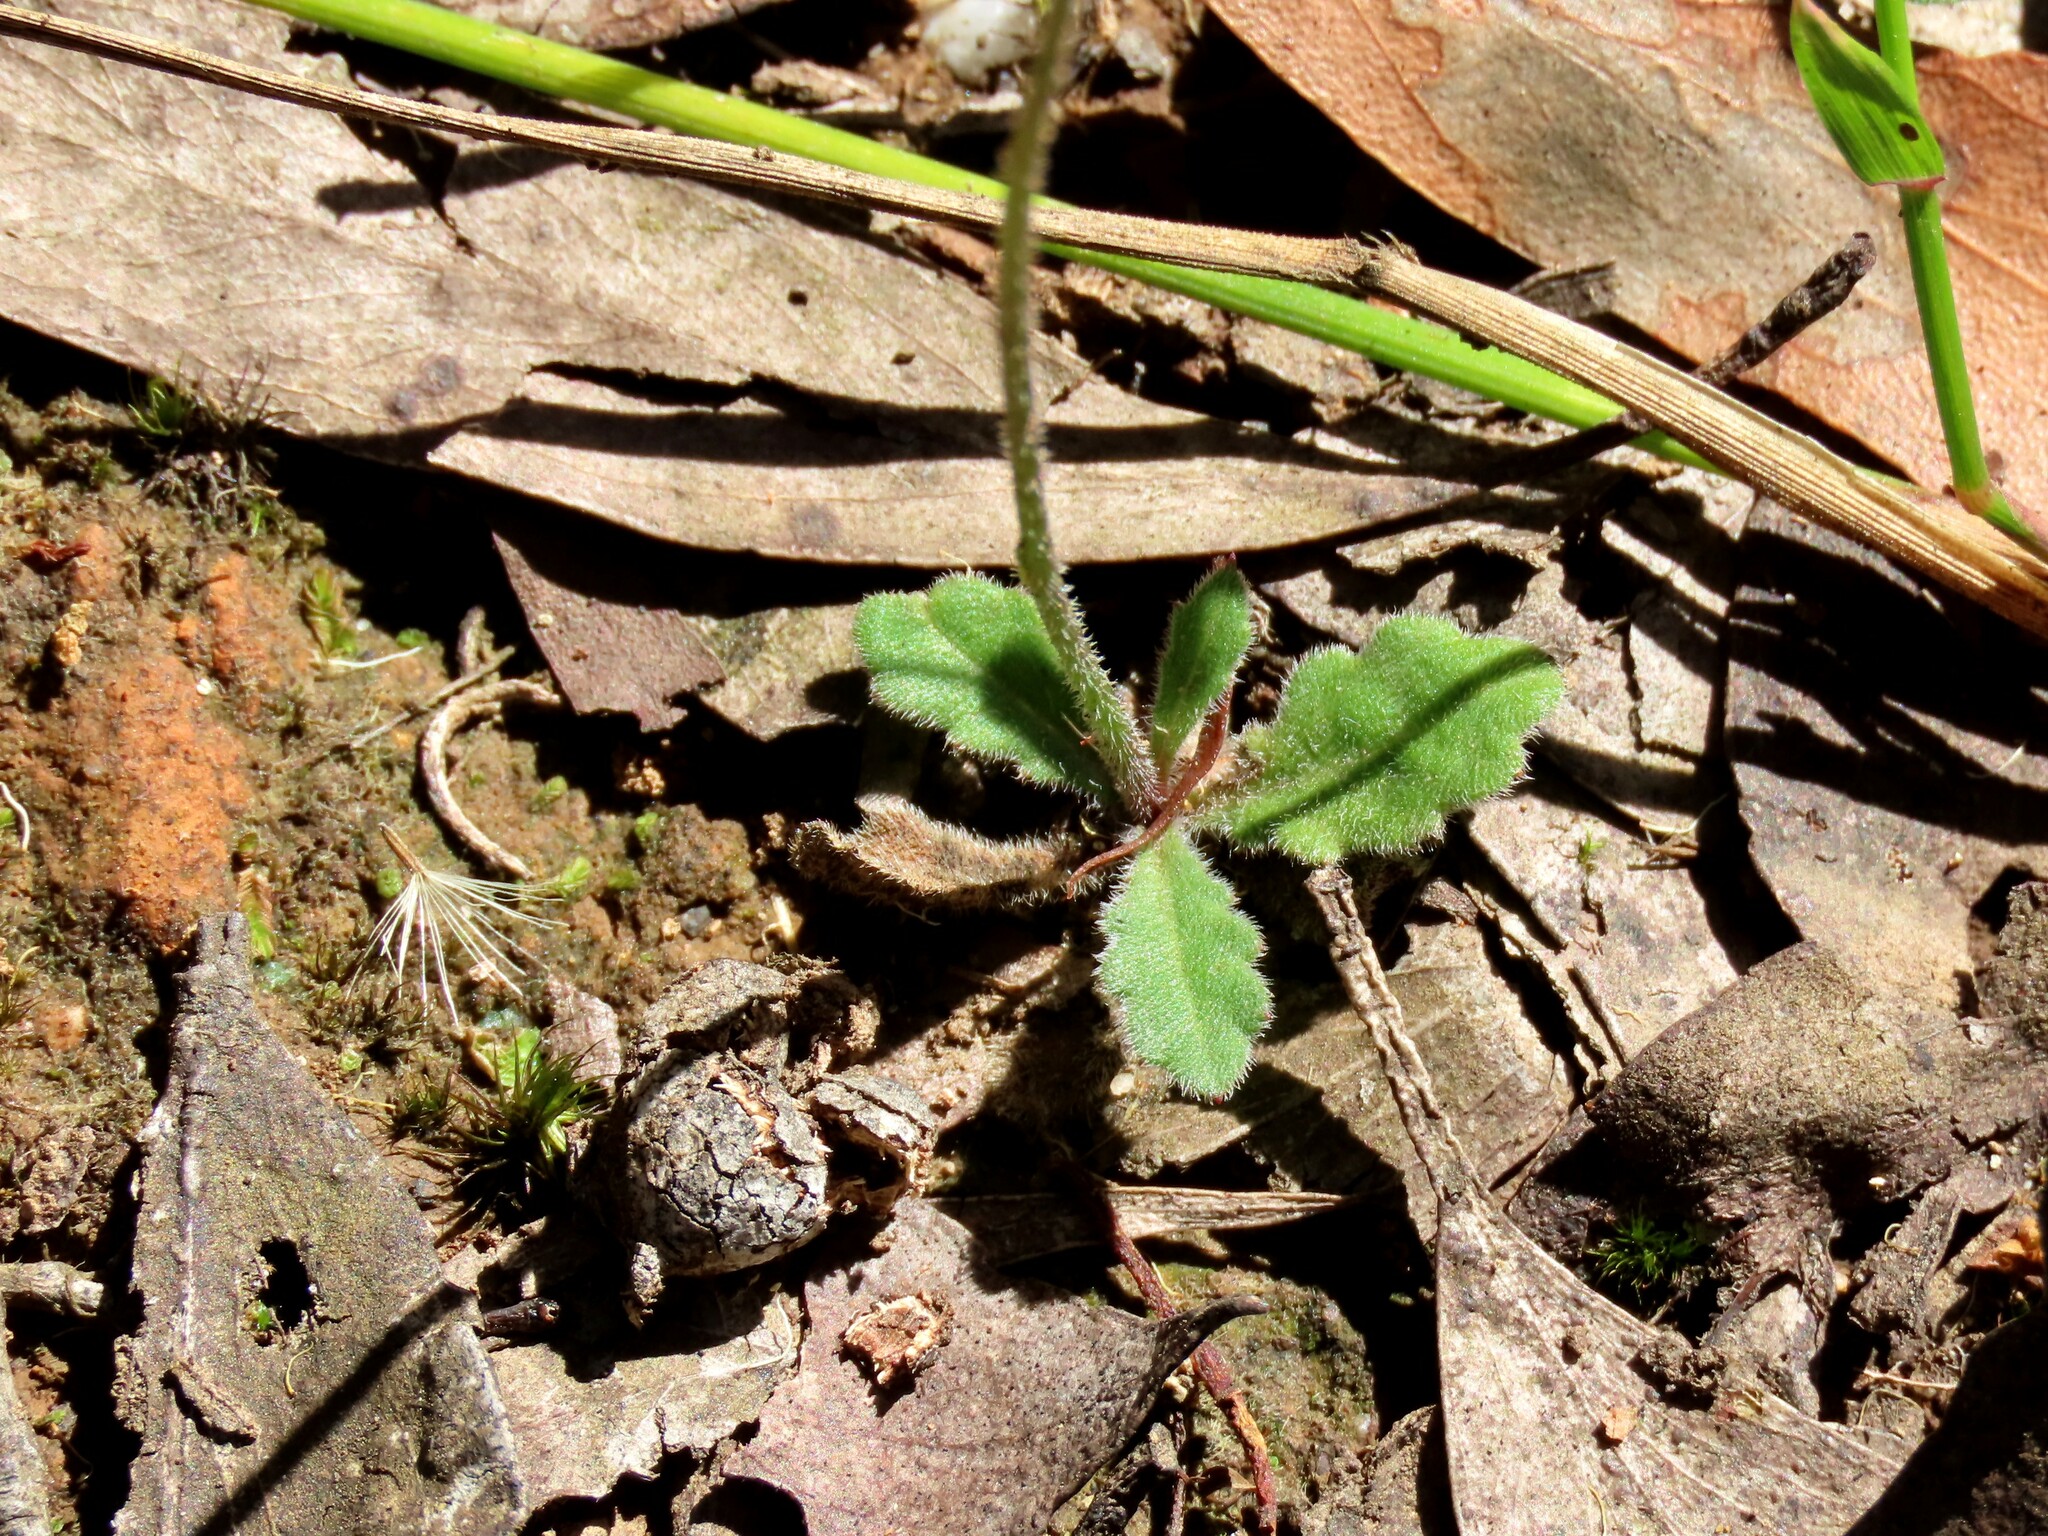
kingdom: Plantae
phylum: Tracheophyta
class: Magnoliopsida
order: Asterales
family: Asteraceae
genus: Lagenophora
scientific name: Lagenophora stipitata
